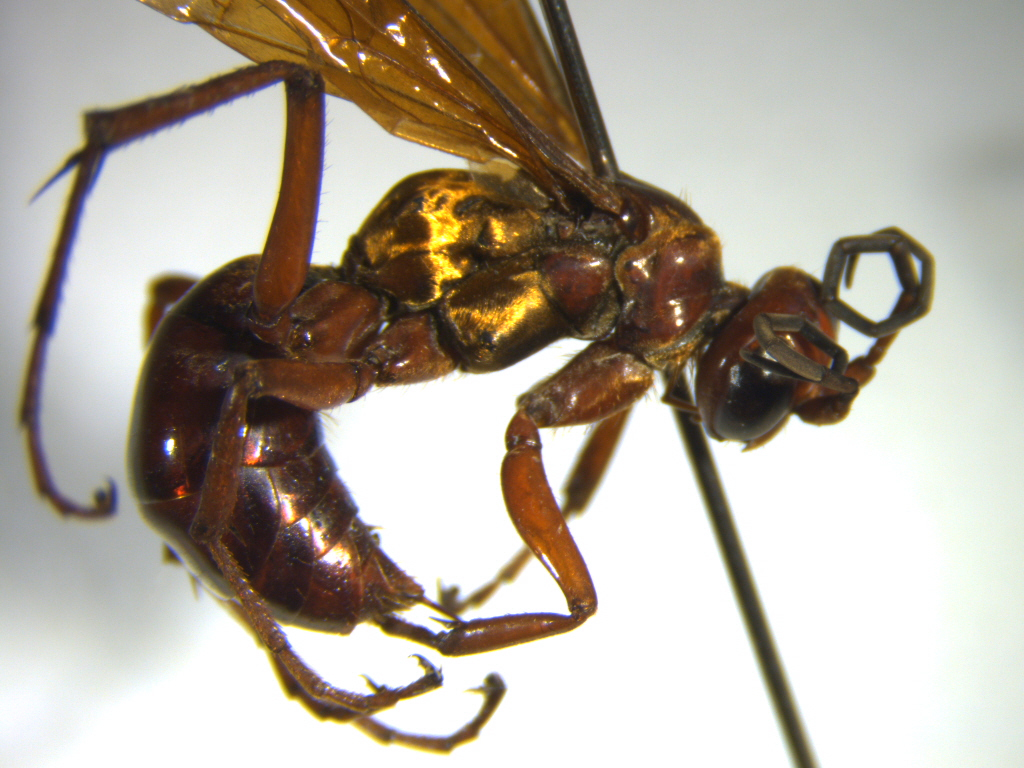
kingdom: Animalia
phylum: Arthropoda
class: Insecta
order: Hymenoptera
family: Pompilidae
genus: Sphictostethus
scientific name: Sphictostethus nitidus
